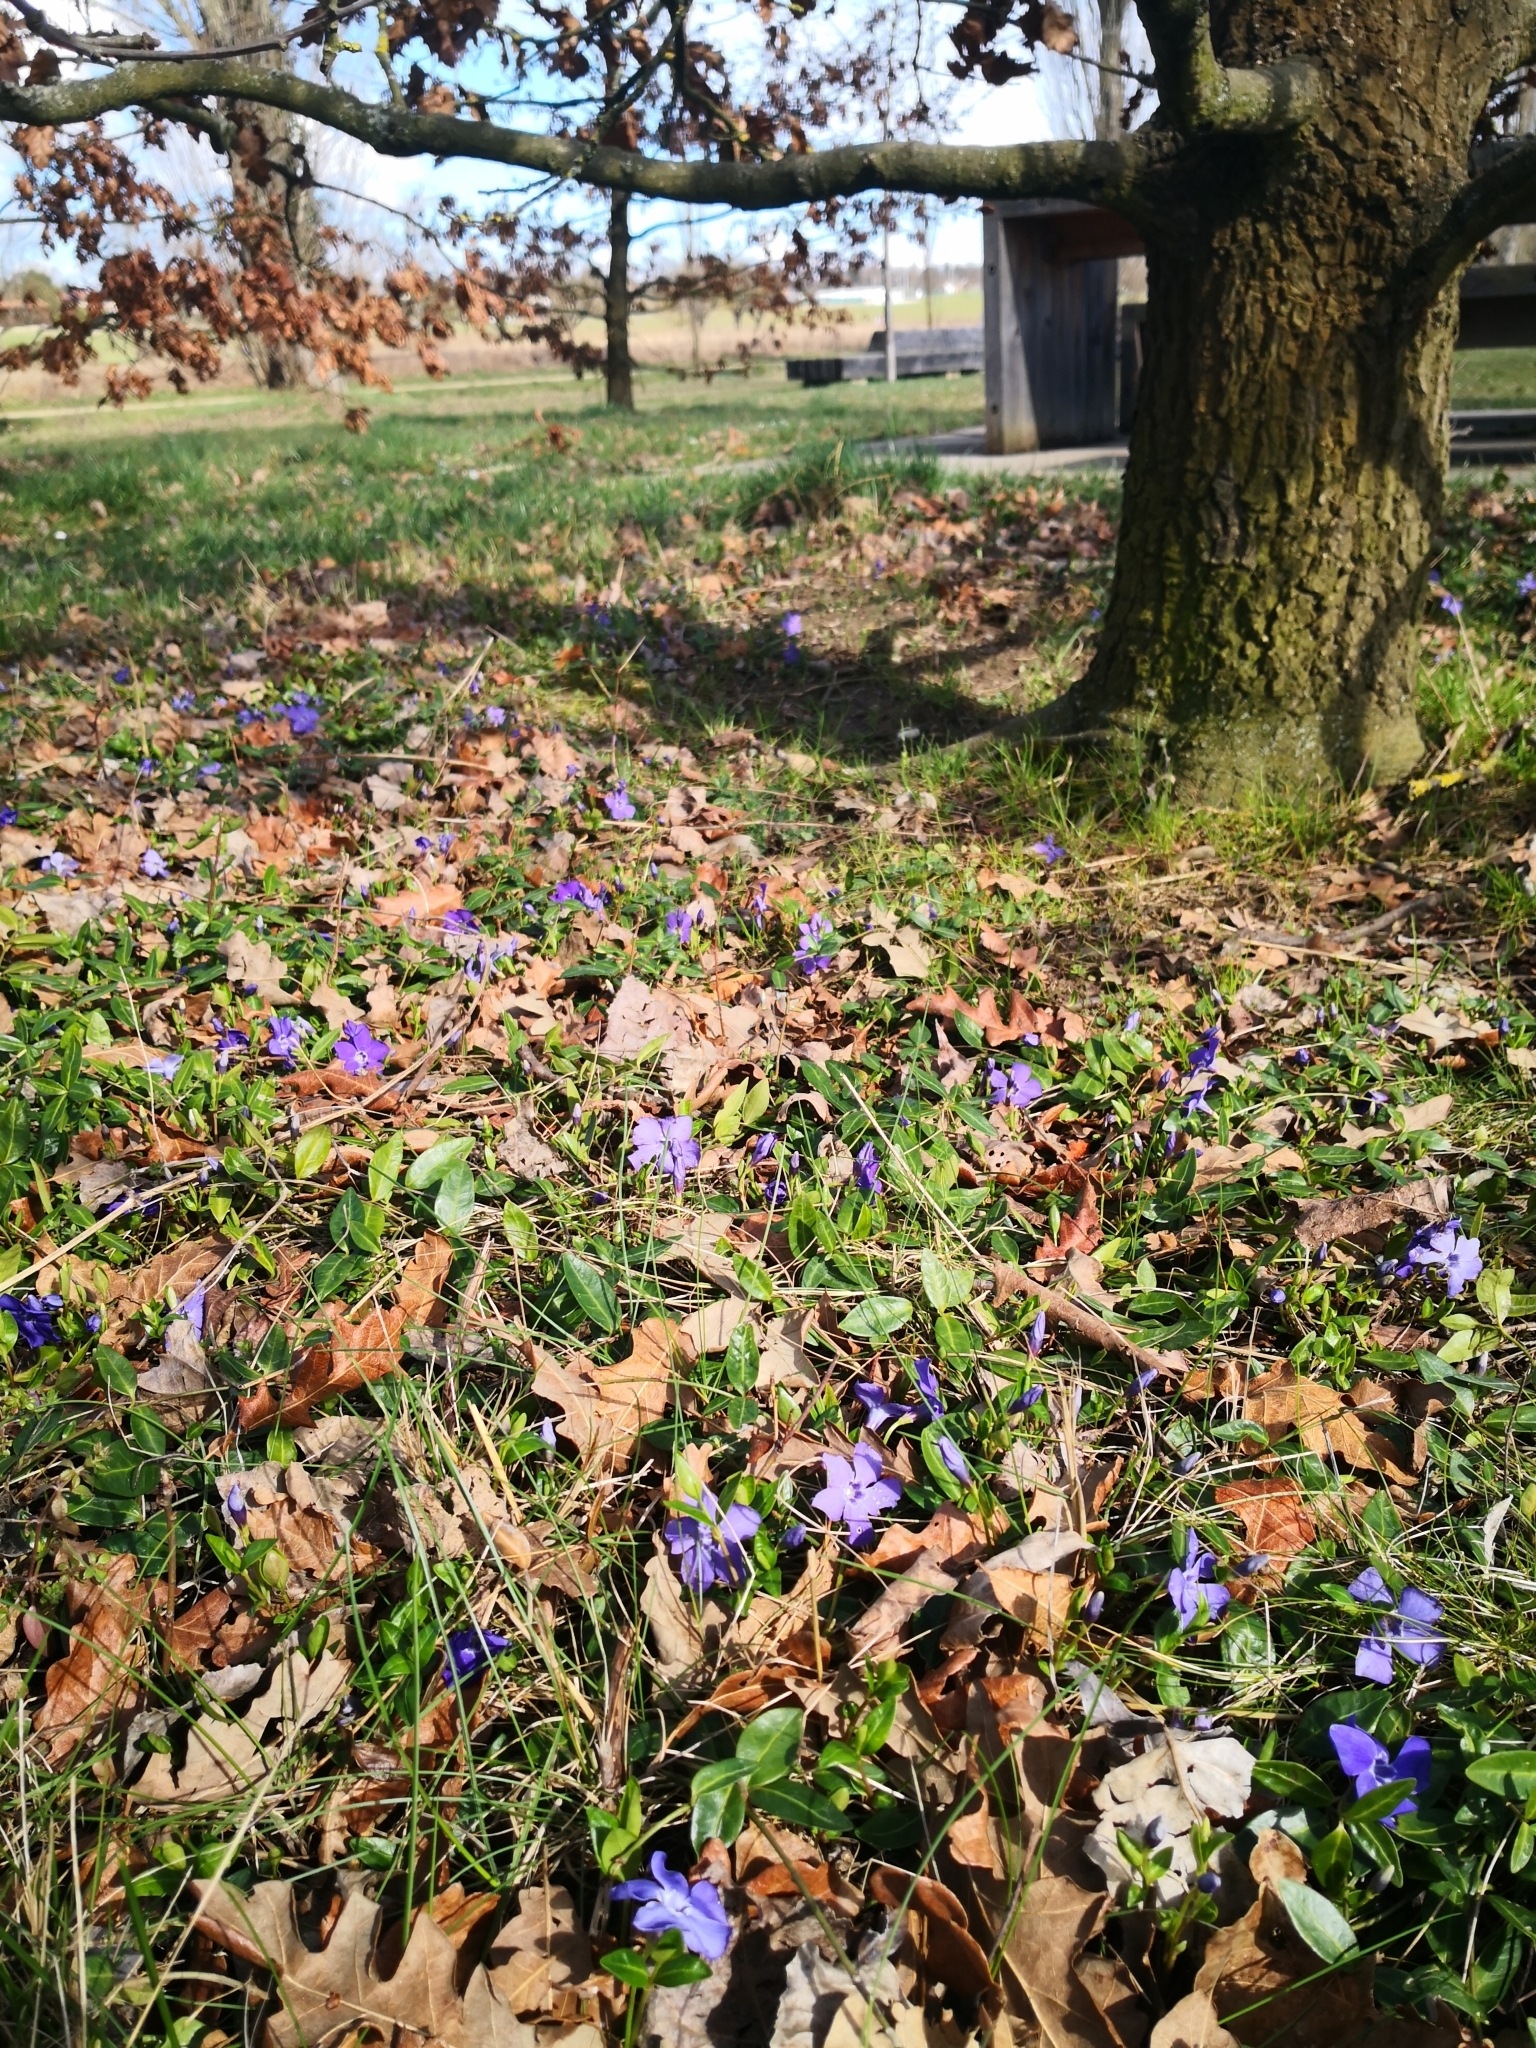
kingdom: Plantae
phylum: Tracheophyta
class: Magnoliopsida
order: Gentianales
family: Apocynaceae
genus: Vinca
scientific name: Vinca minor
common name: Lesser periwinkle
